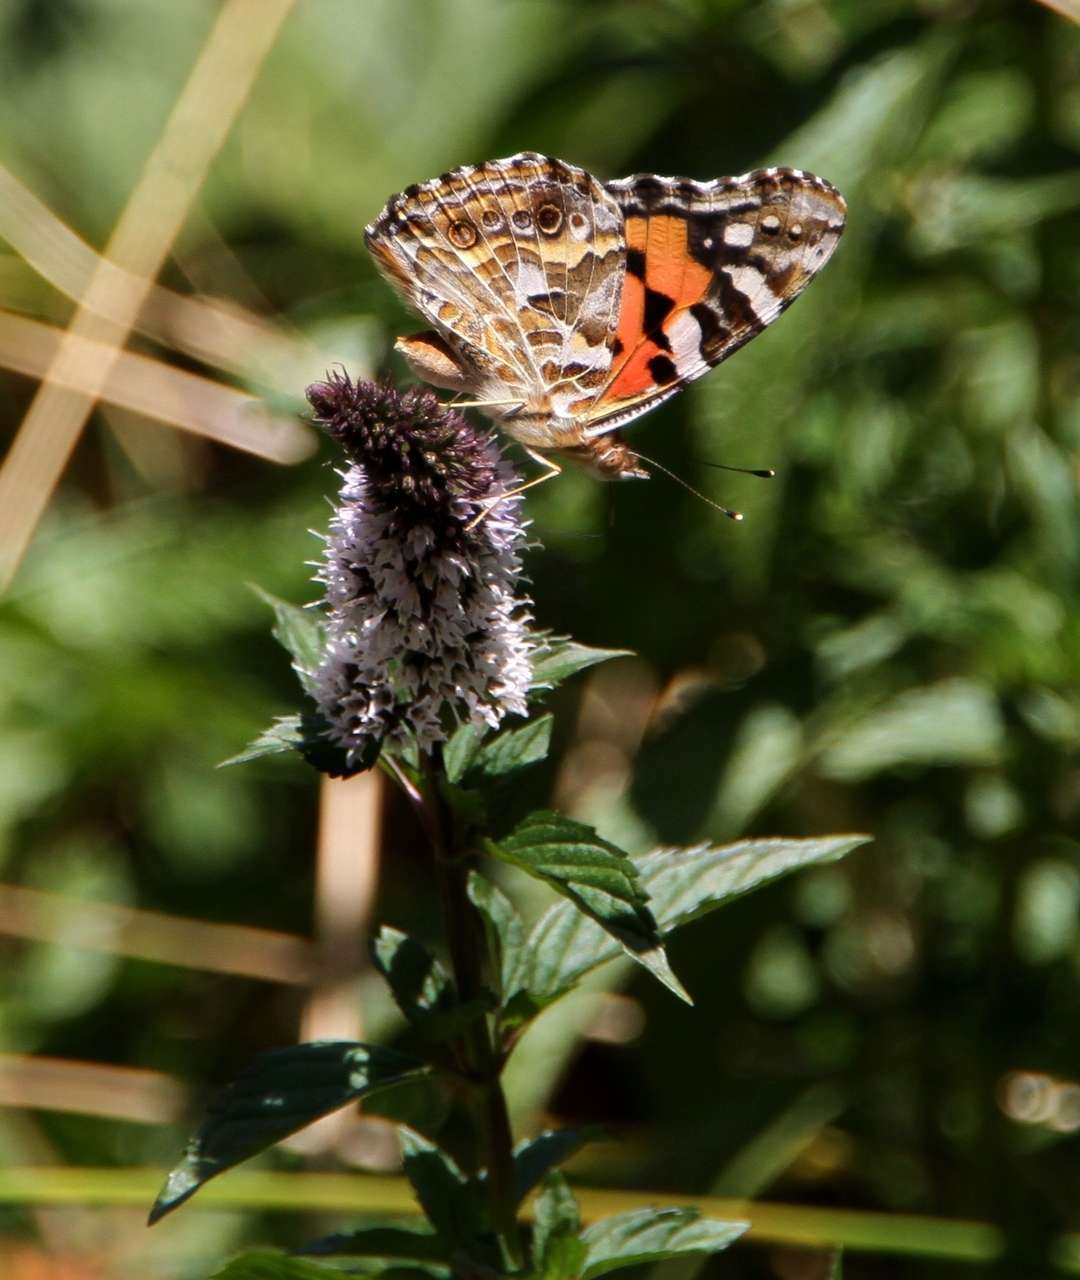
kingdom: Animalia
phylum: Arthropoda
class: Insecta
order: Lepidoptera
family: Nymphalidae
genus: Vanessa
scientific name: Vanessa kershawi
